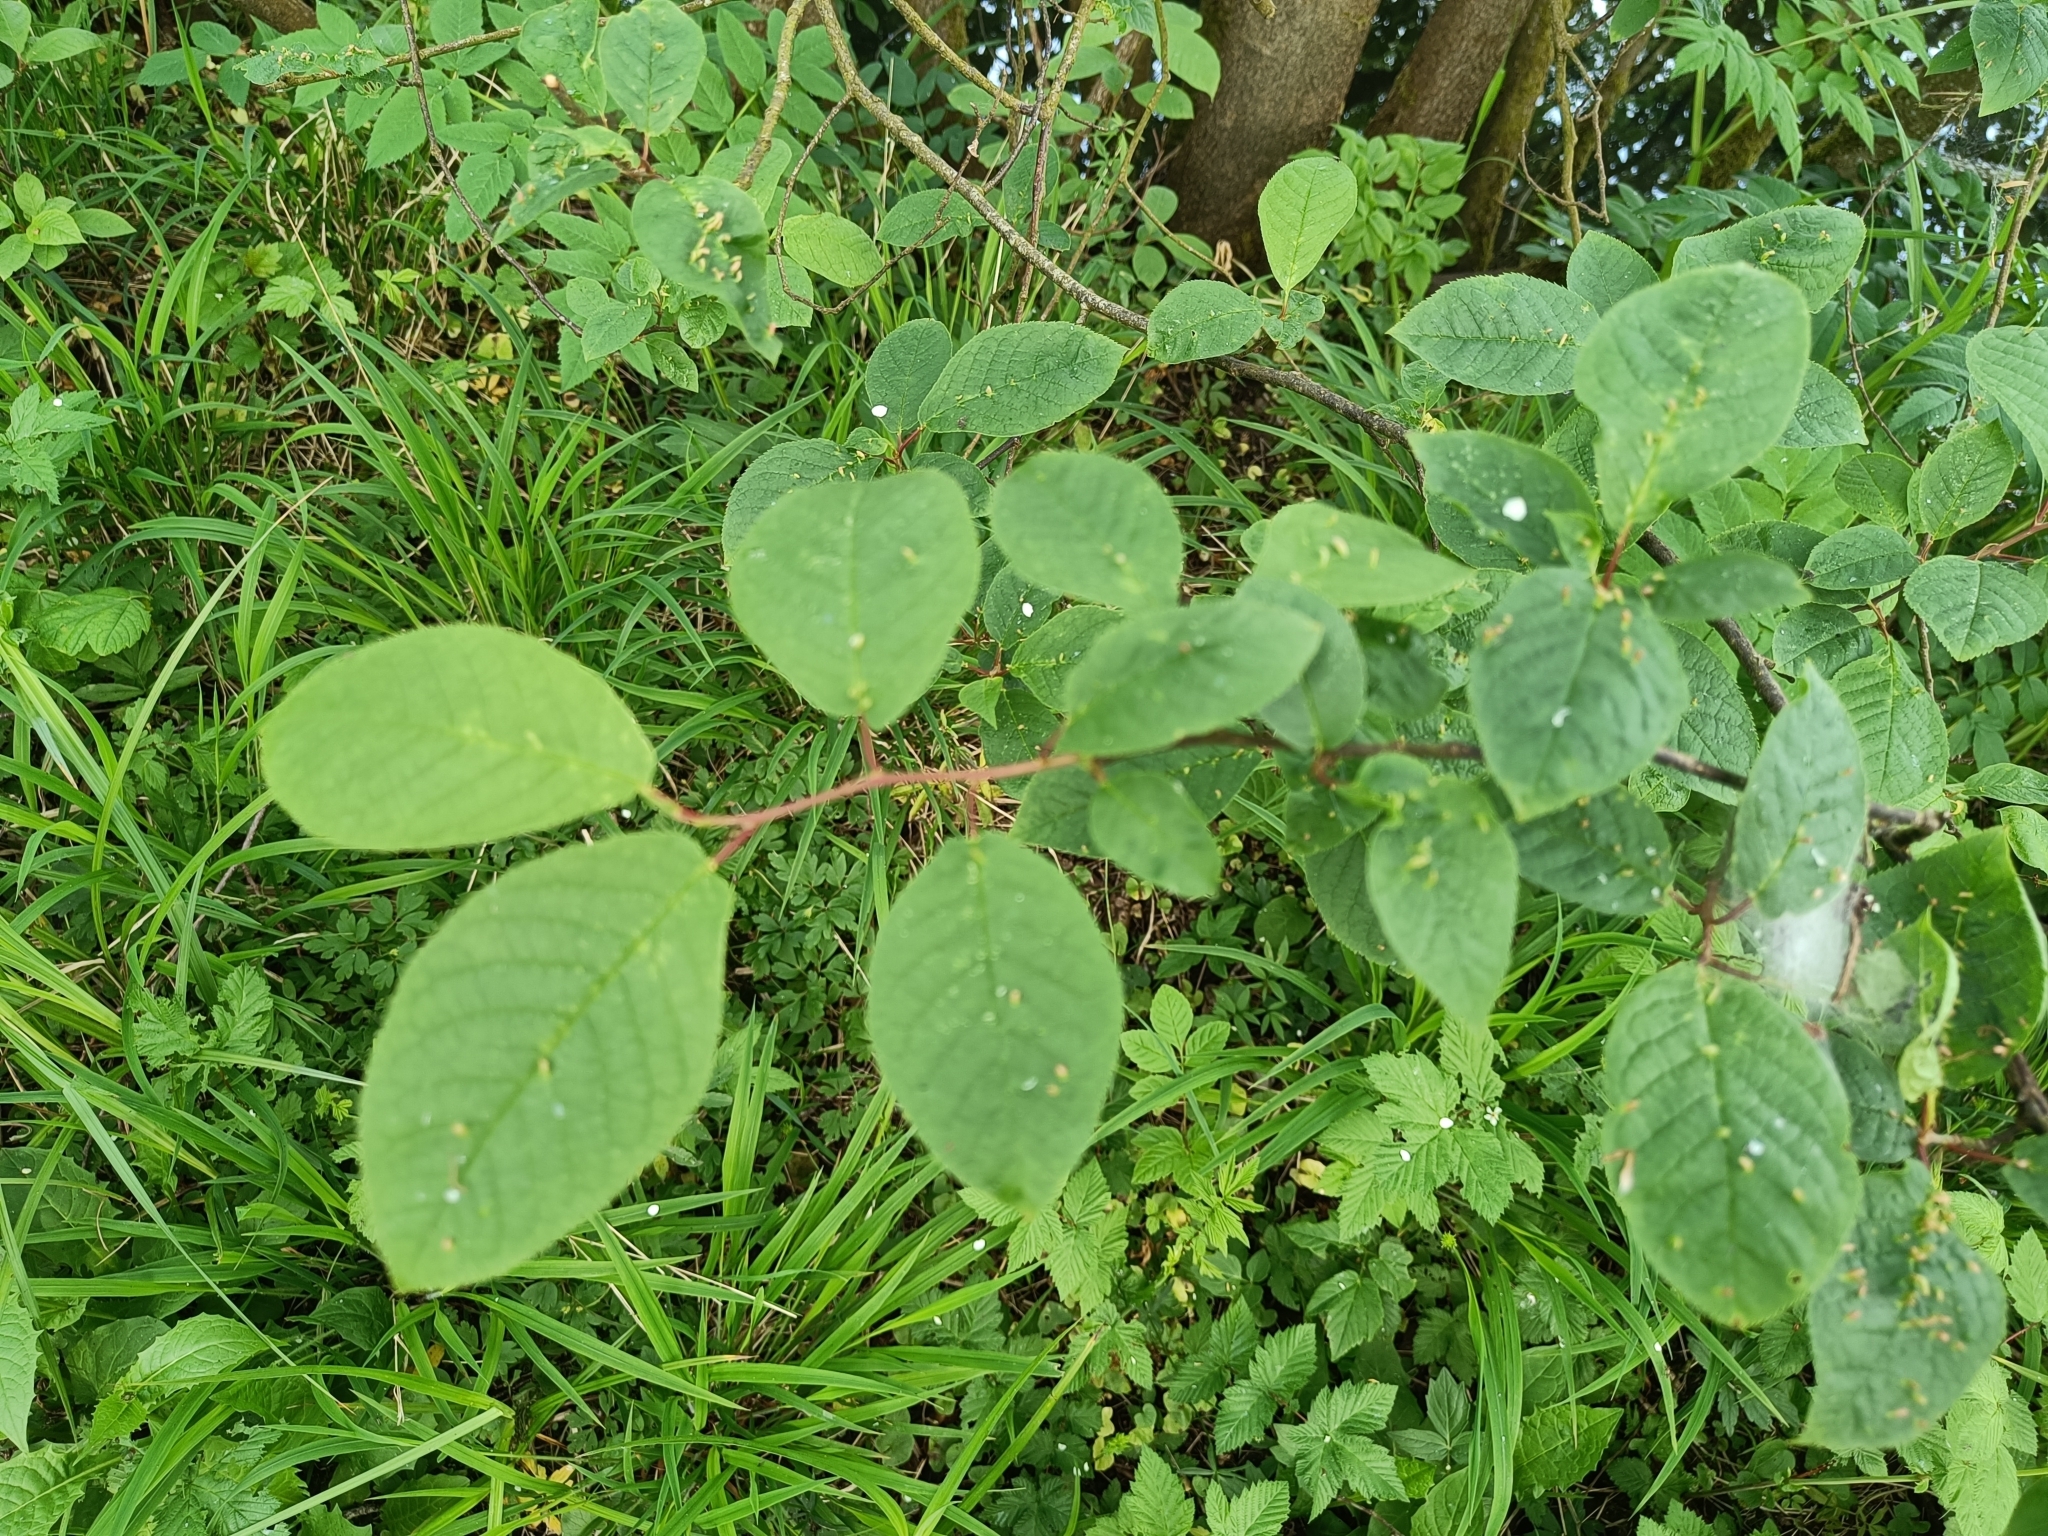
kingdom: Plantae
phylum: Tracheophyta
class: Magnoliopsida
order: Rosales
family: Rosaceae
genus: Prunus
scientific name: Prunus padus
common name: Bird cherry
